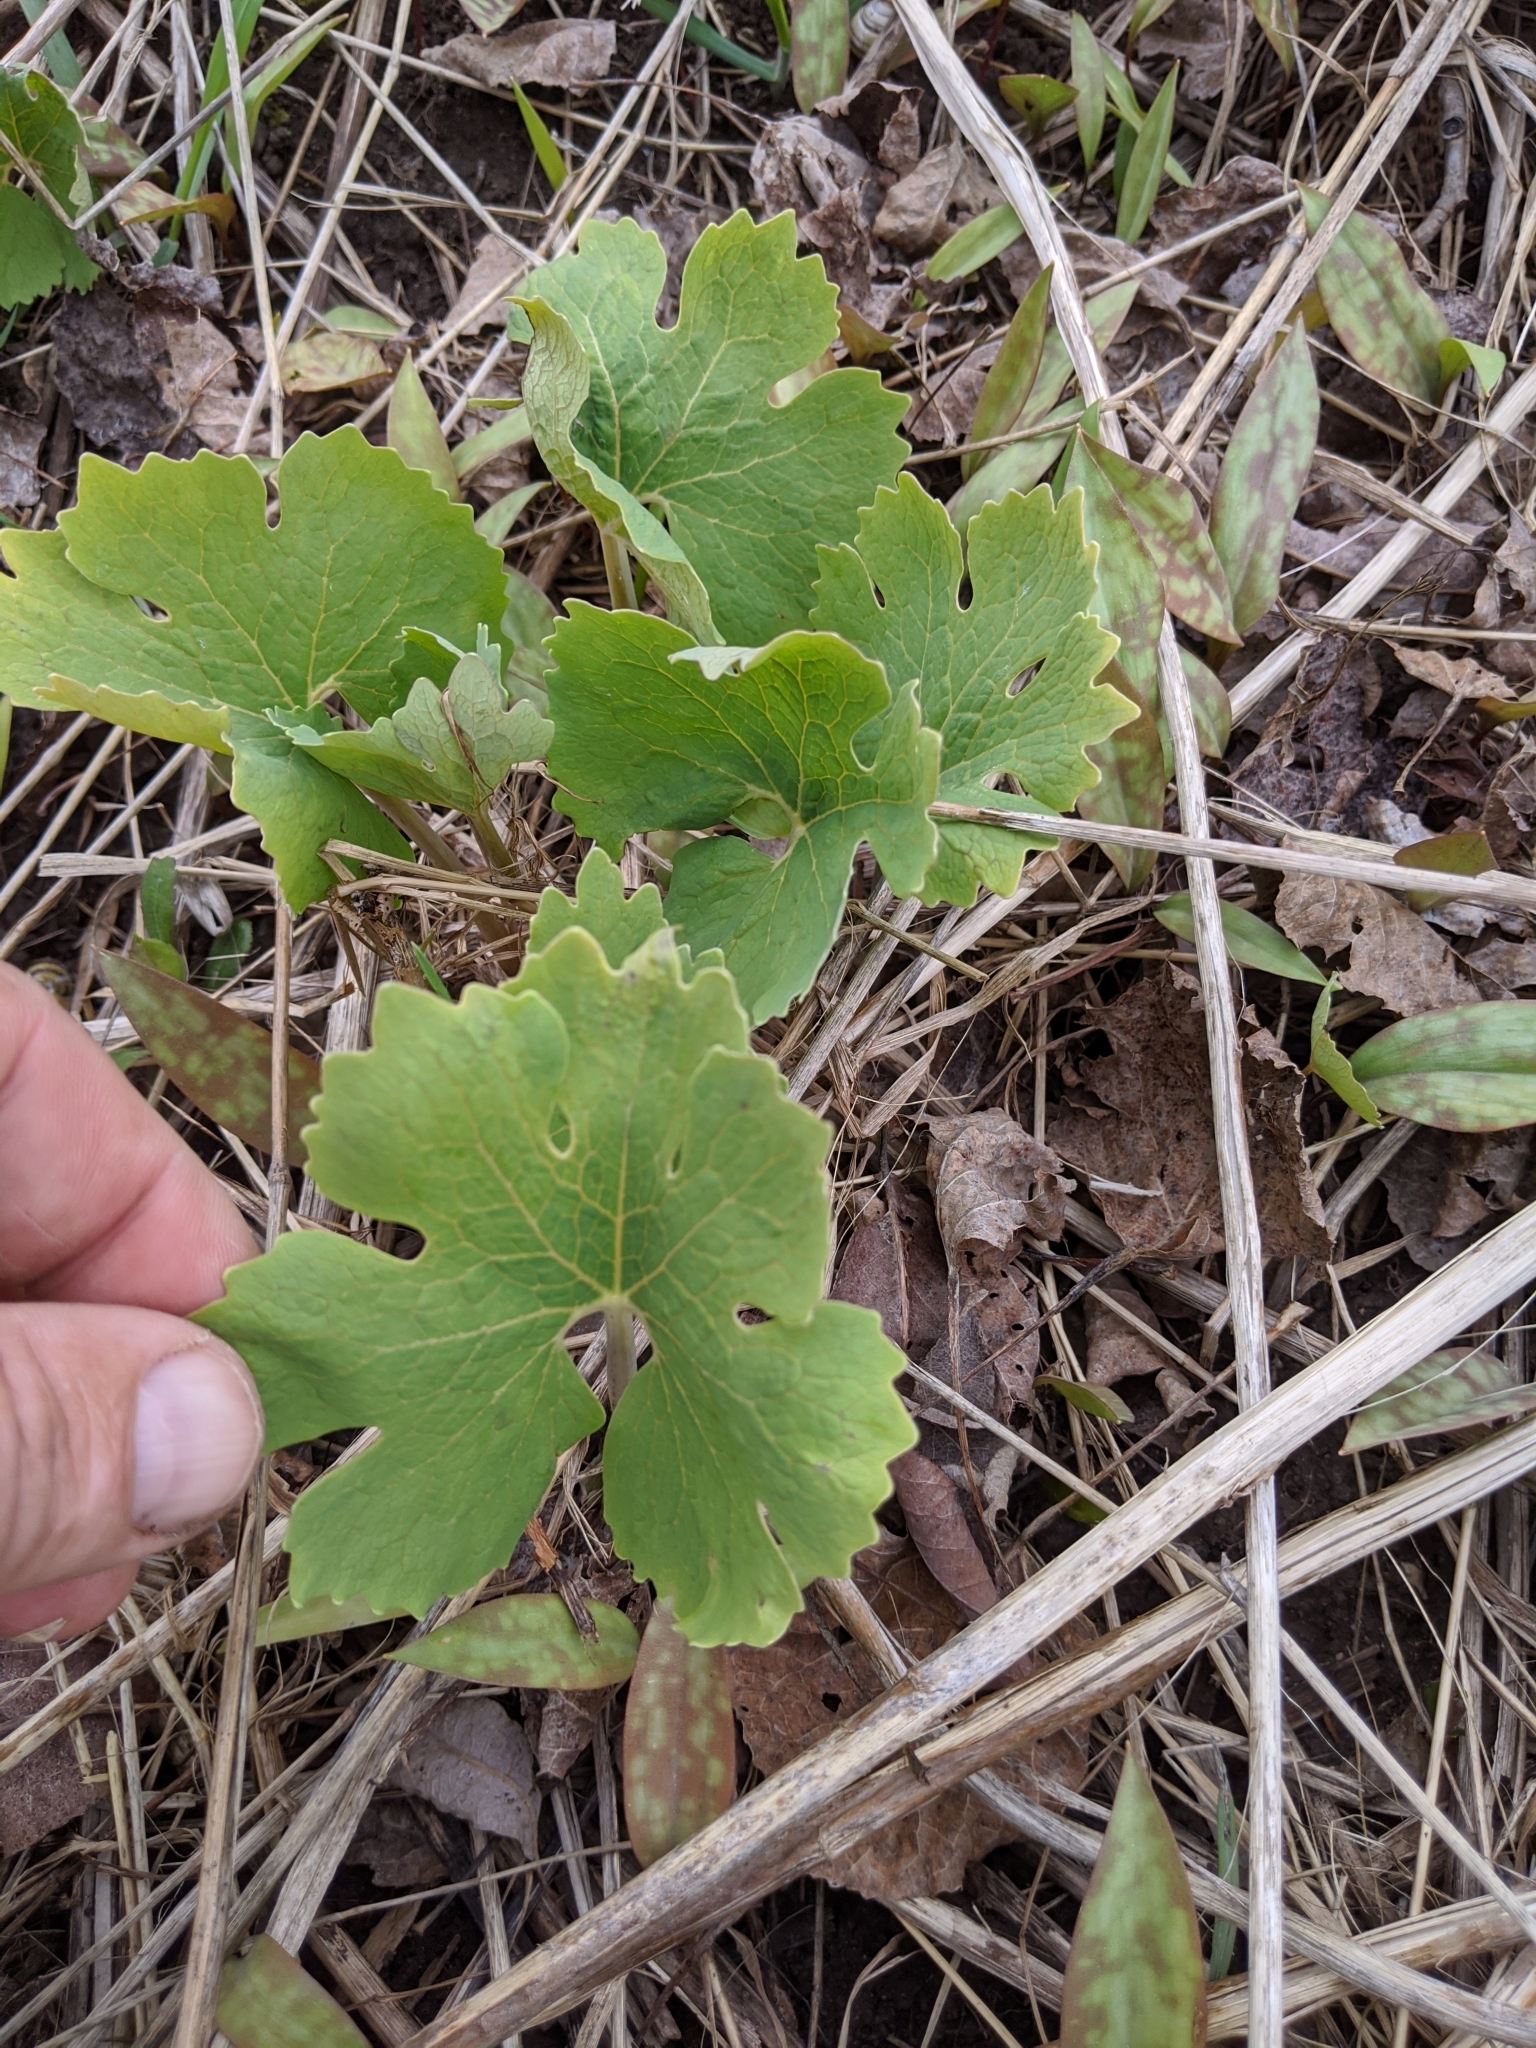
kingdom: Plantae
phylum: Tracheophyta
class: Magnoliopsida
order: Ranunculales
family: Papaveraceae
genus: Sanguinaria
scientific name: Sanguinaria canadensis
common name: Bloodroot
